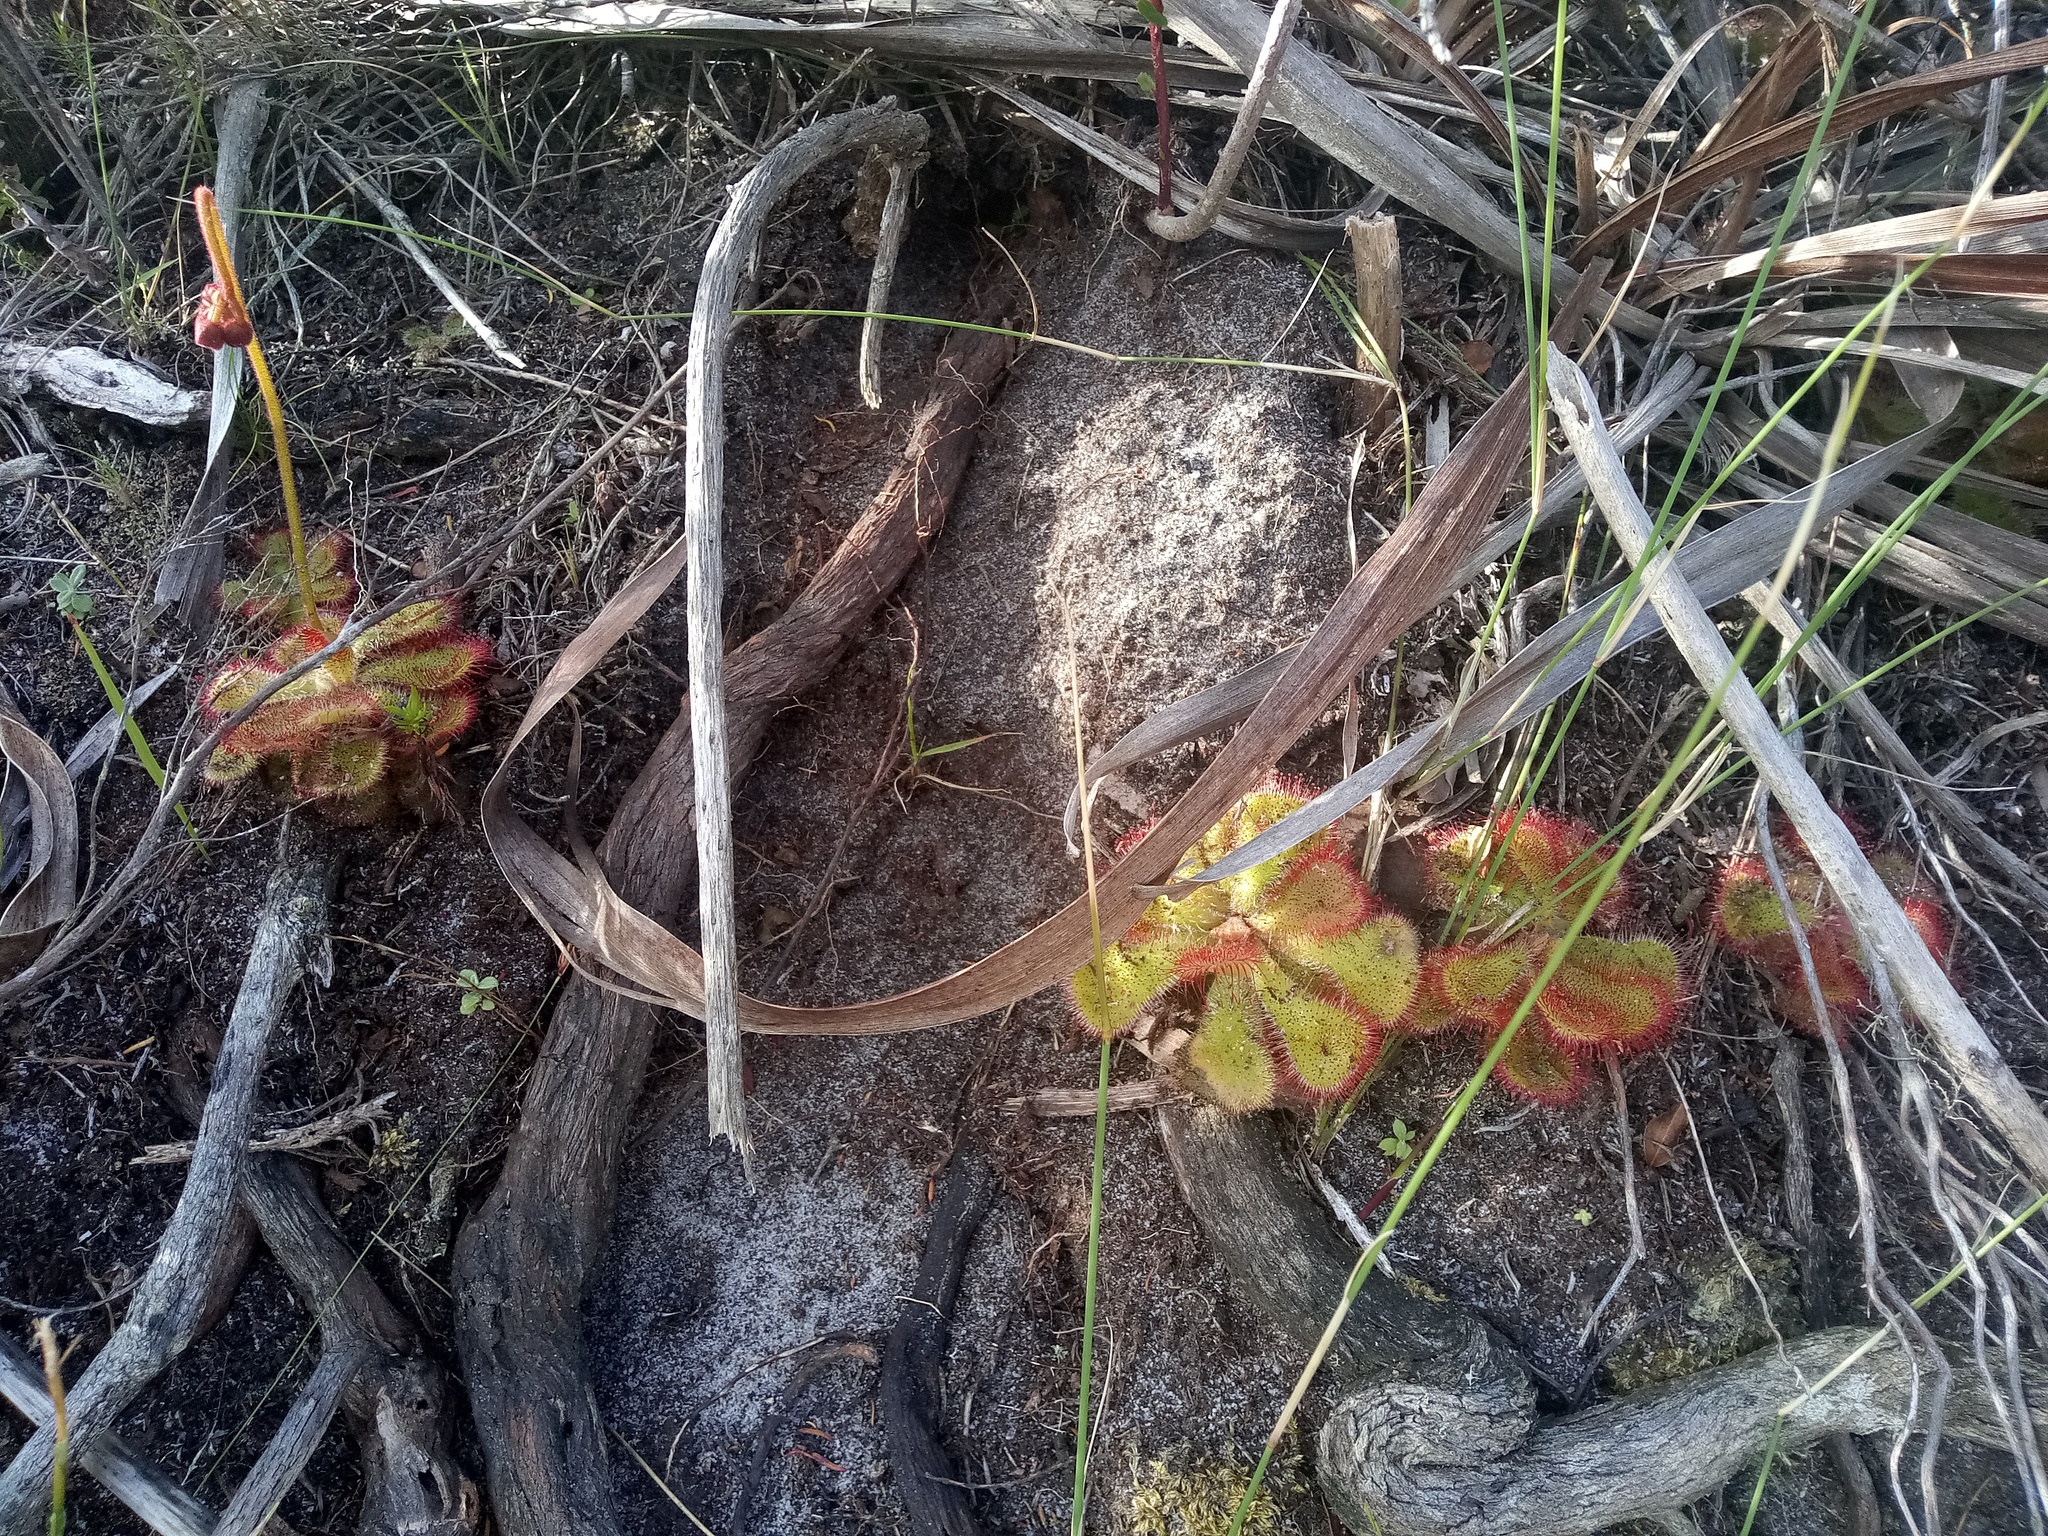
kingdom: Plantae
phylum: Tracheophyta
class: Magnoliopsida
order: Caryophyllales
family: Droseraceae
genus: Drosera
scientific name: Drosera cuneifolia
